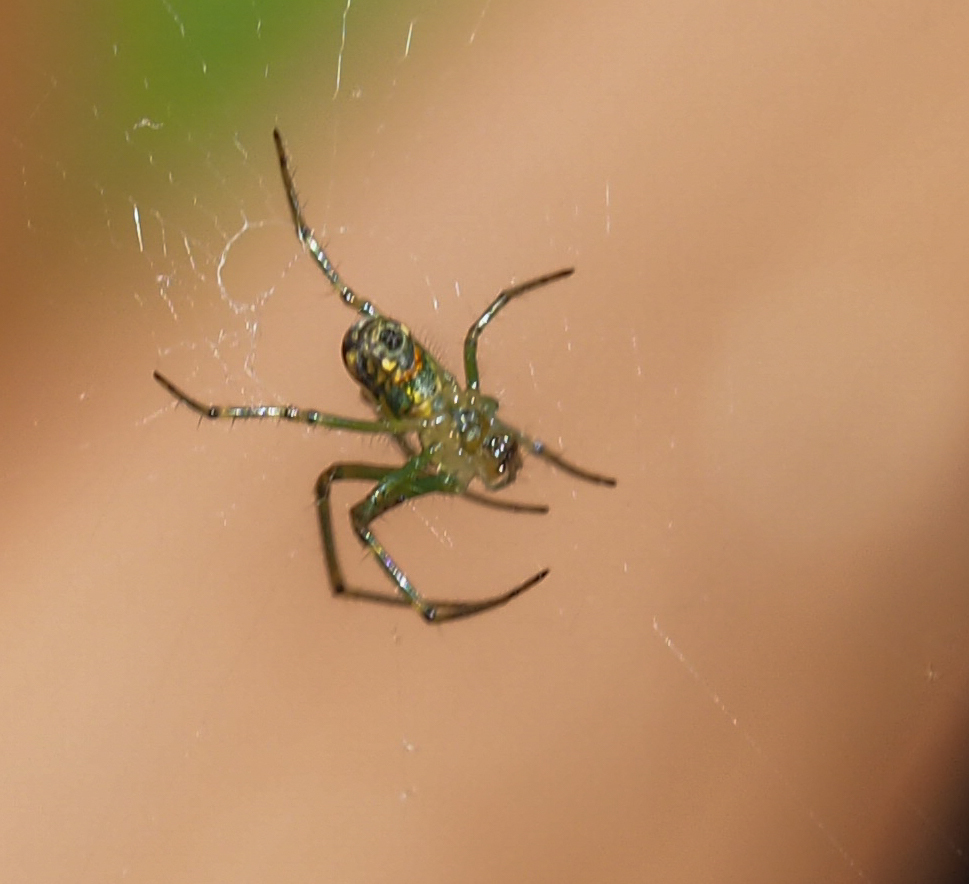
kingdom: Animalia
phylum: Arthropoda
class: Arachnida
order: Araneae
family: Tetragnathidae
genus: Leucauge
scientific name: Leucauge venusta
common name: Longjawed orb weavers
